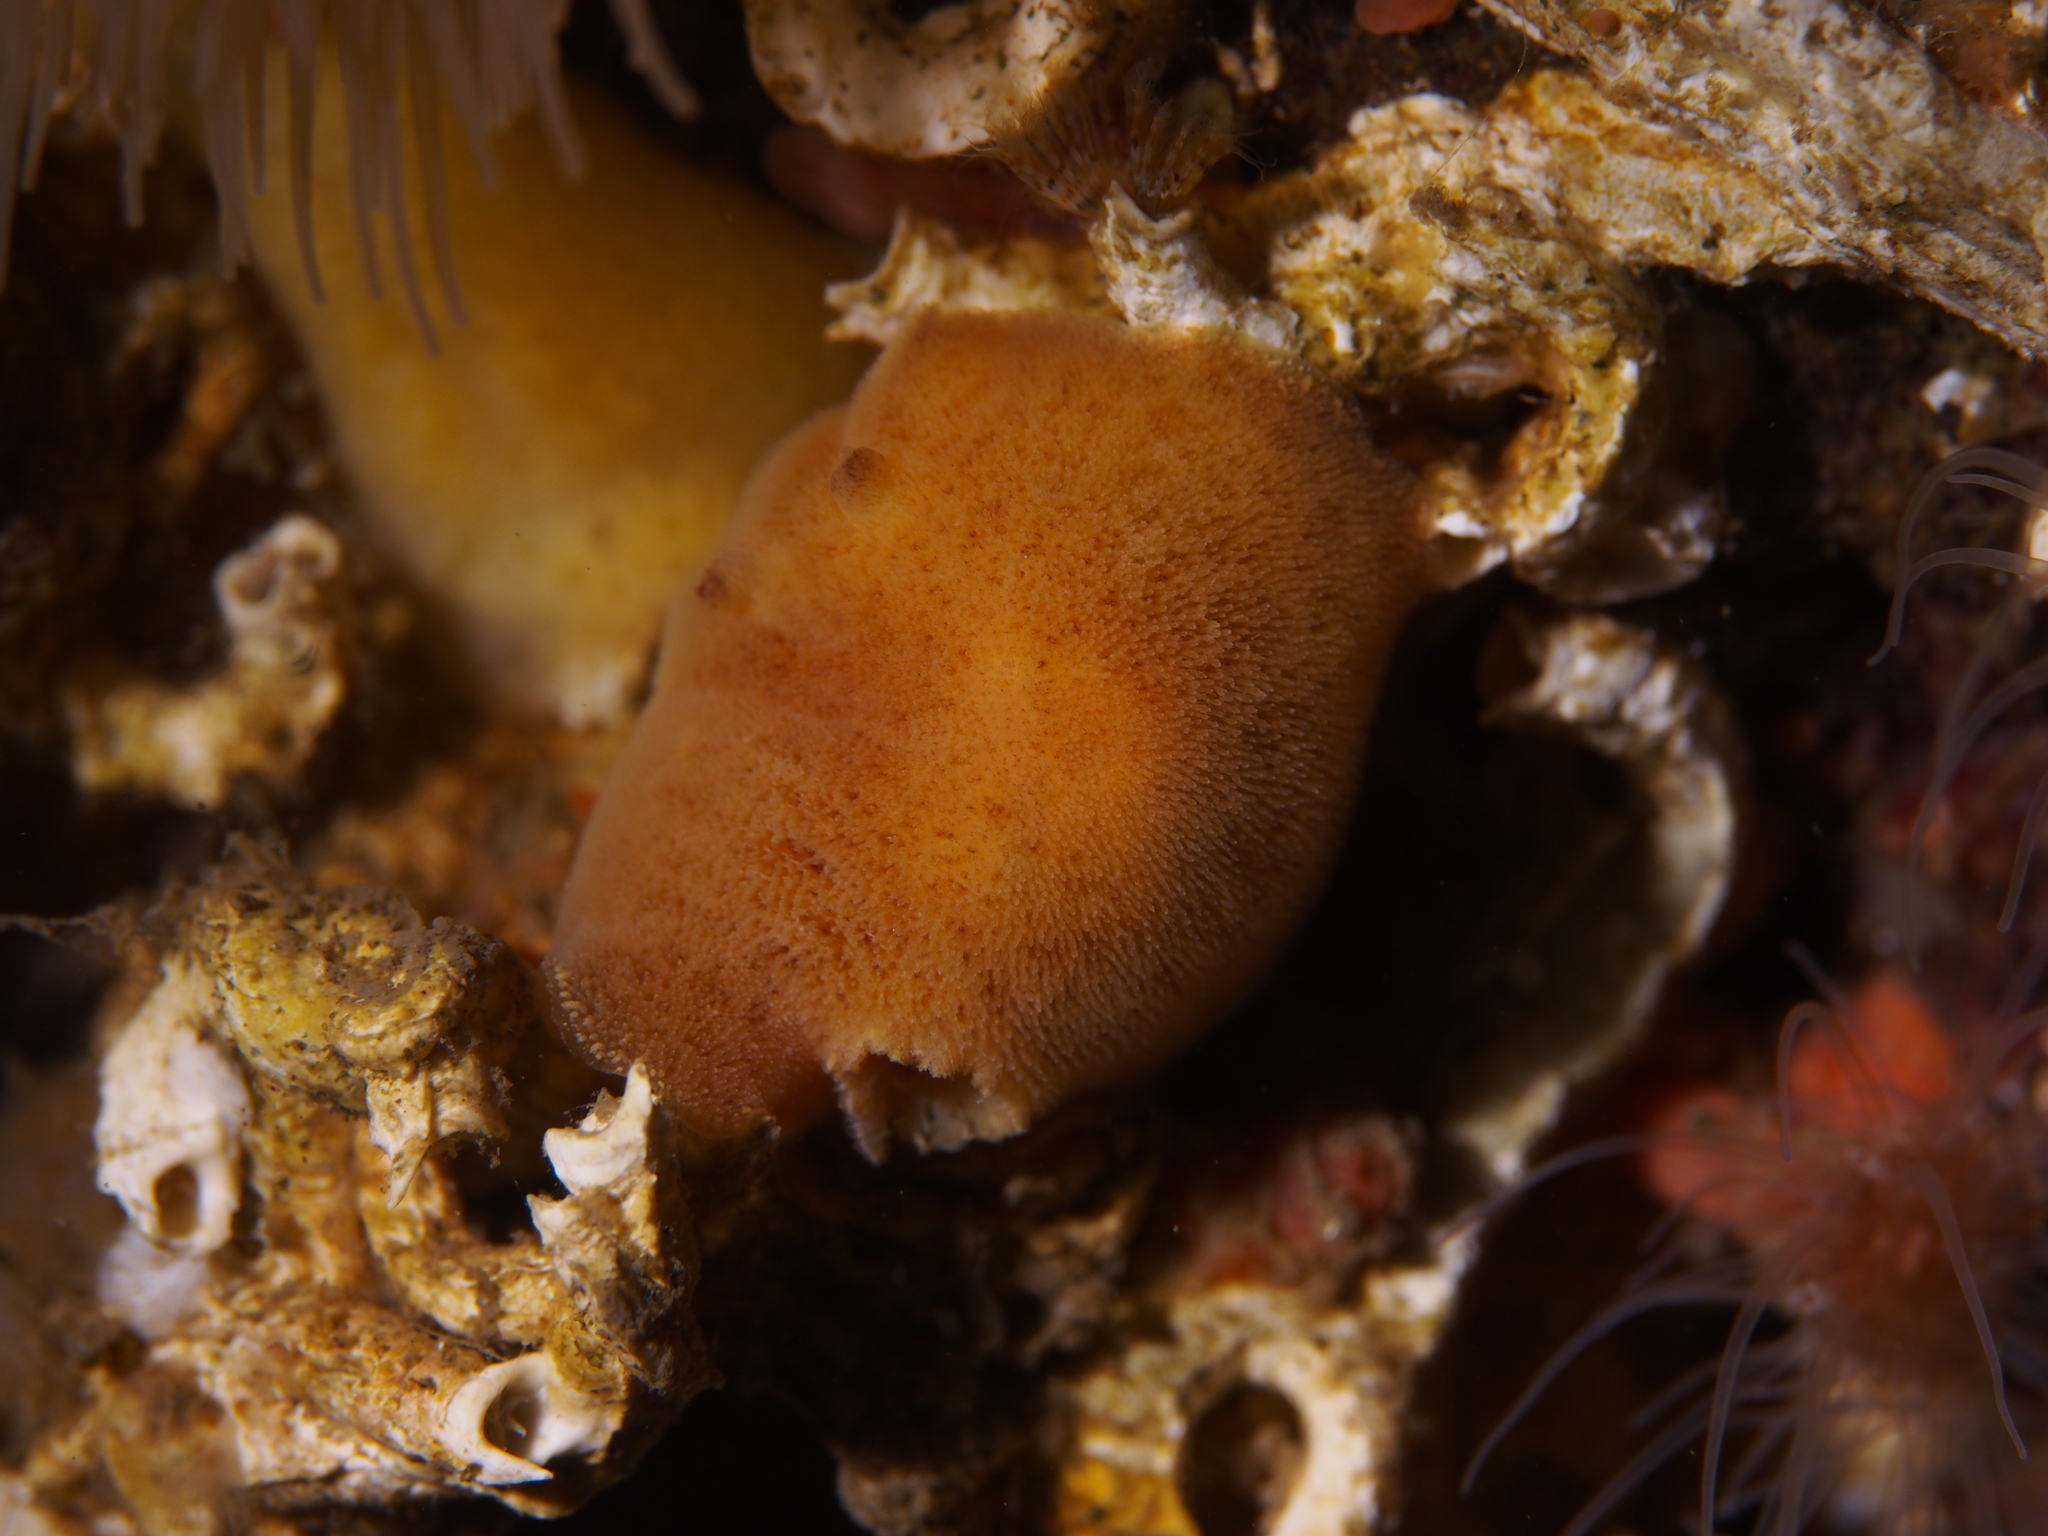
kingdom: Animalia
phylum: Mollusca
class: Gastropoda
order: Nudibranchia
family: Discodorididae
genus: Jorunna
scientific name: Jorunna tomentosa
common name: Grey sea slug
